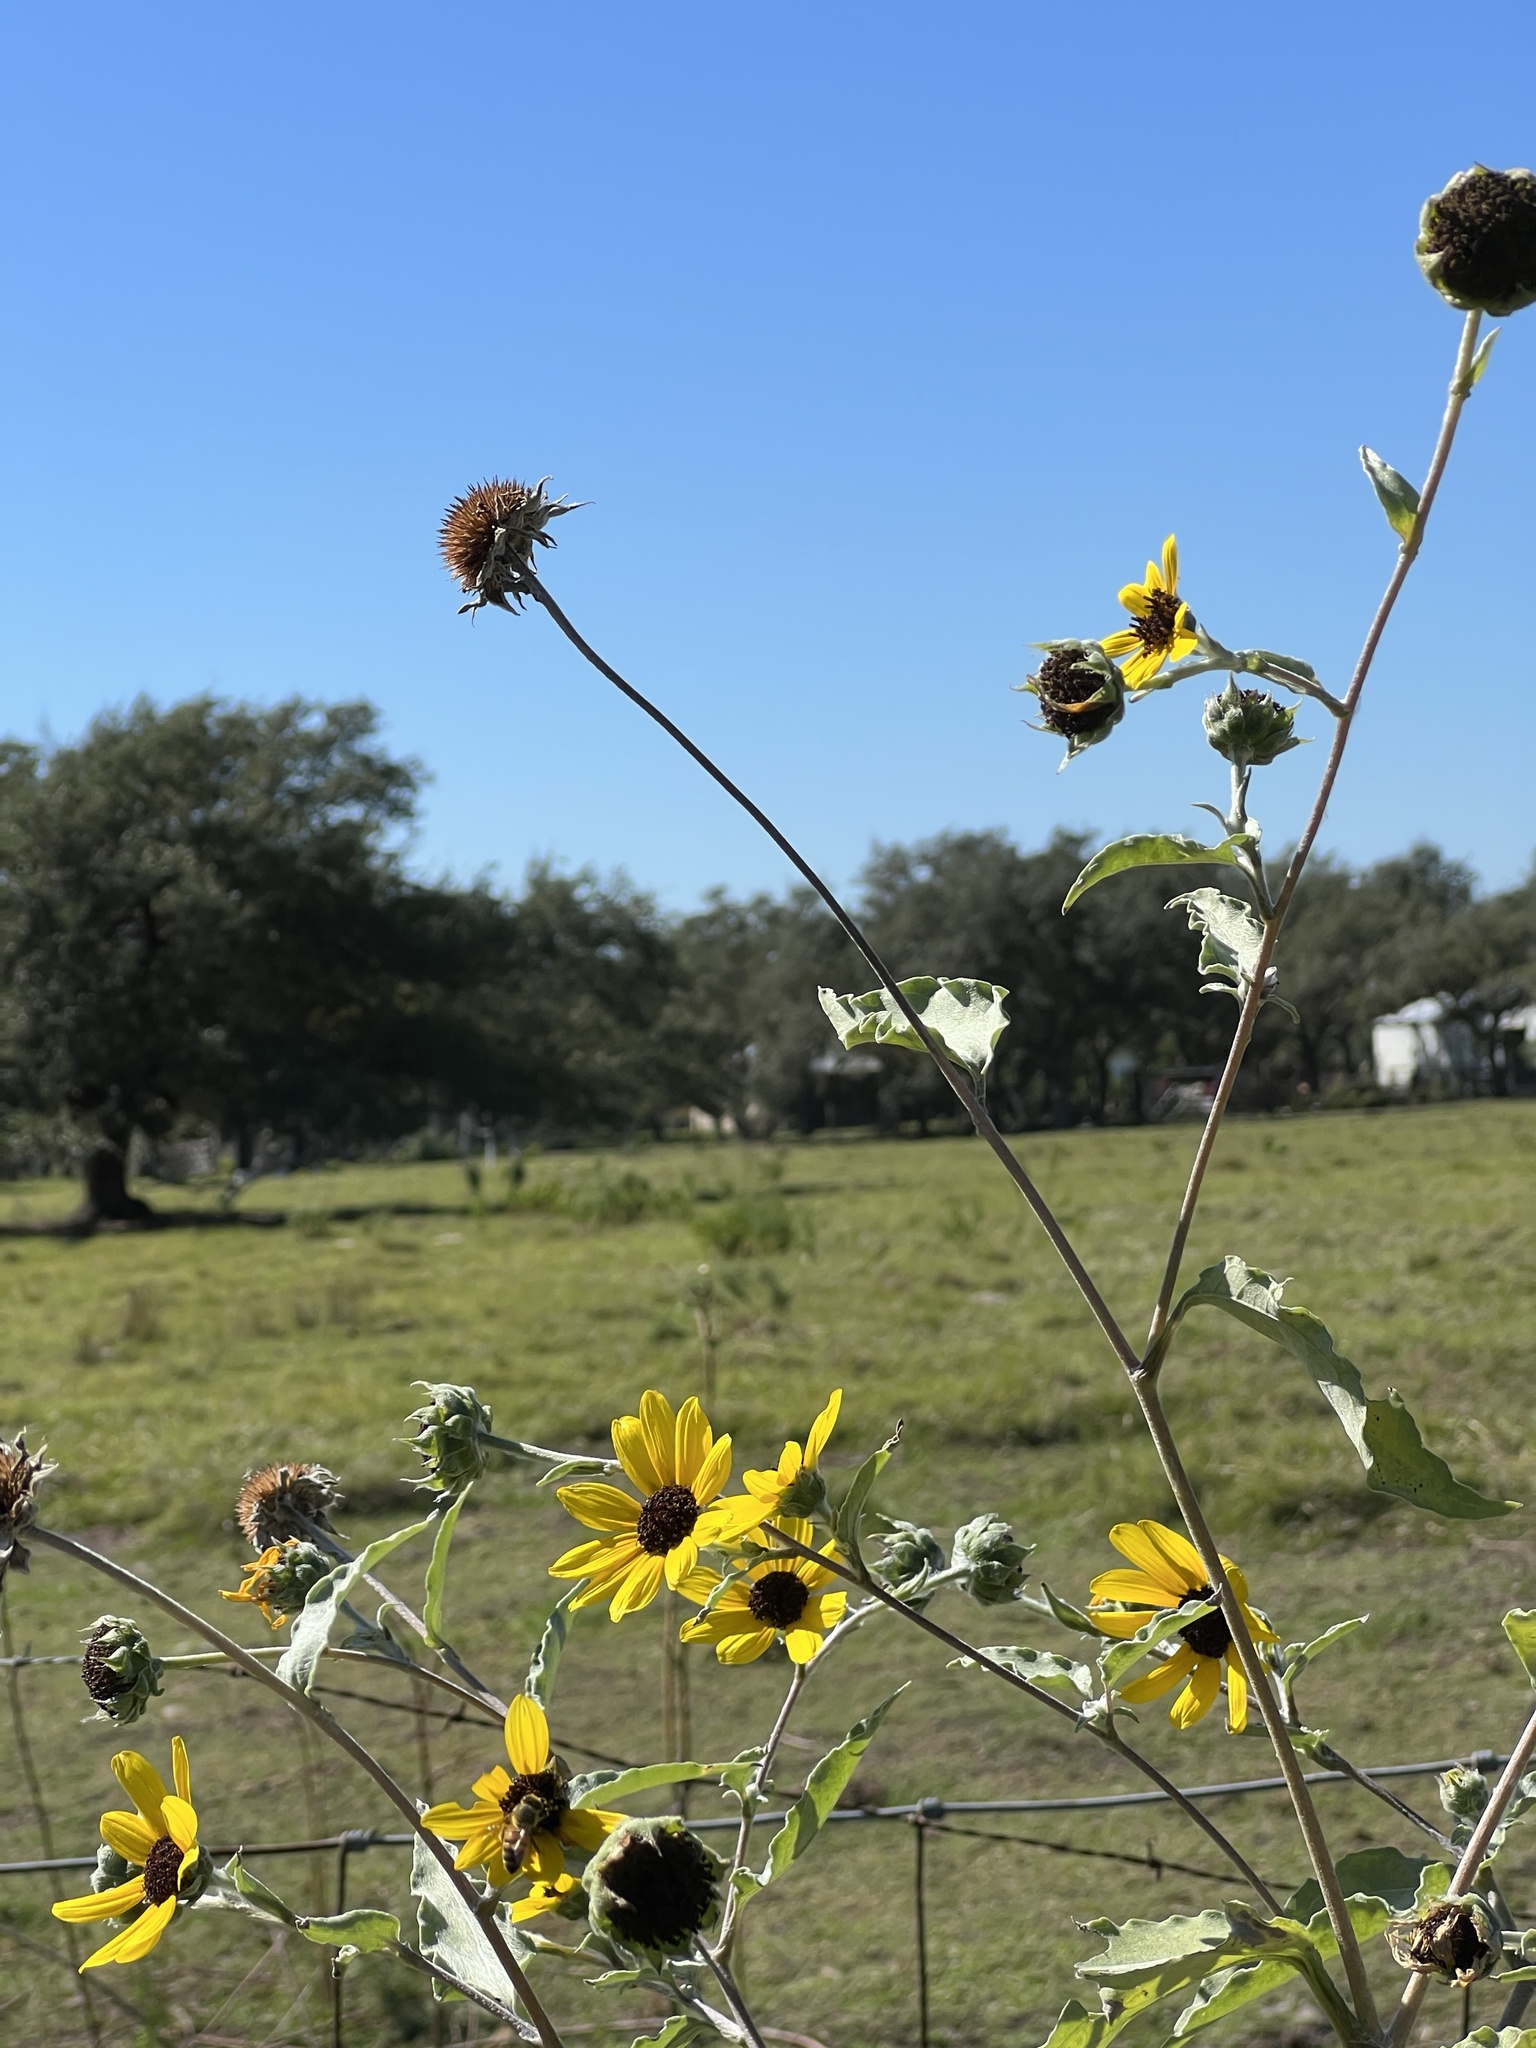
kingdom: Plantae
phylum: Tracheophyta
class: Magnoliopsida
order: Asterales
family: Asteraceae
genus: Helianthus
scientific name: Helianthus argophyllus
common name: Silverleaf sunflower
